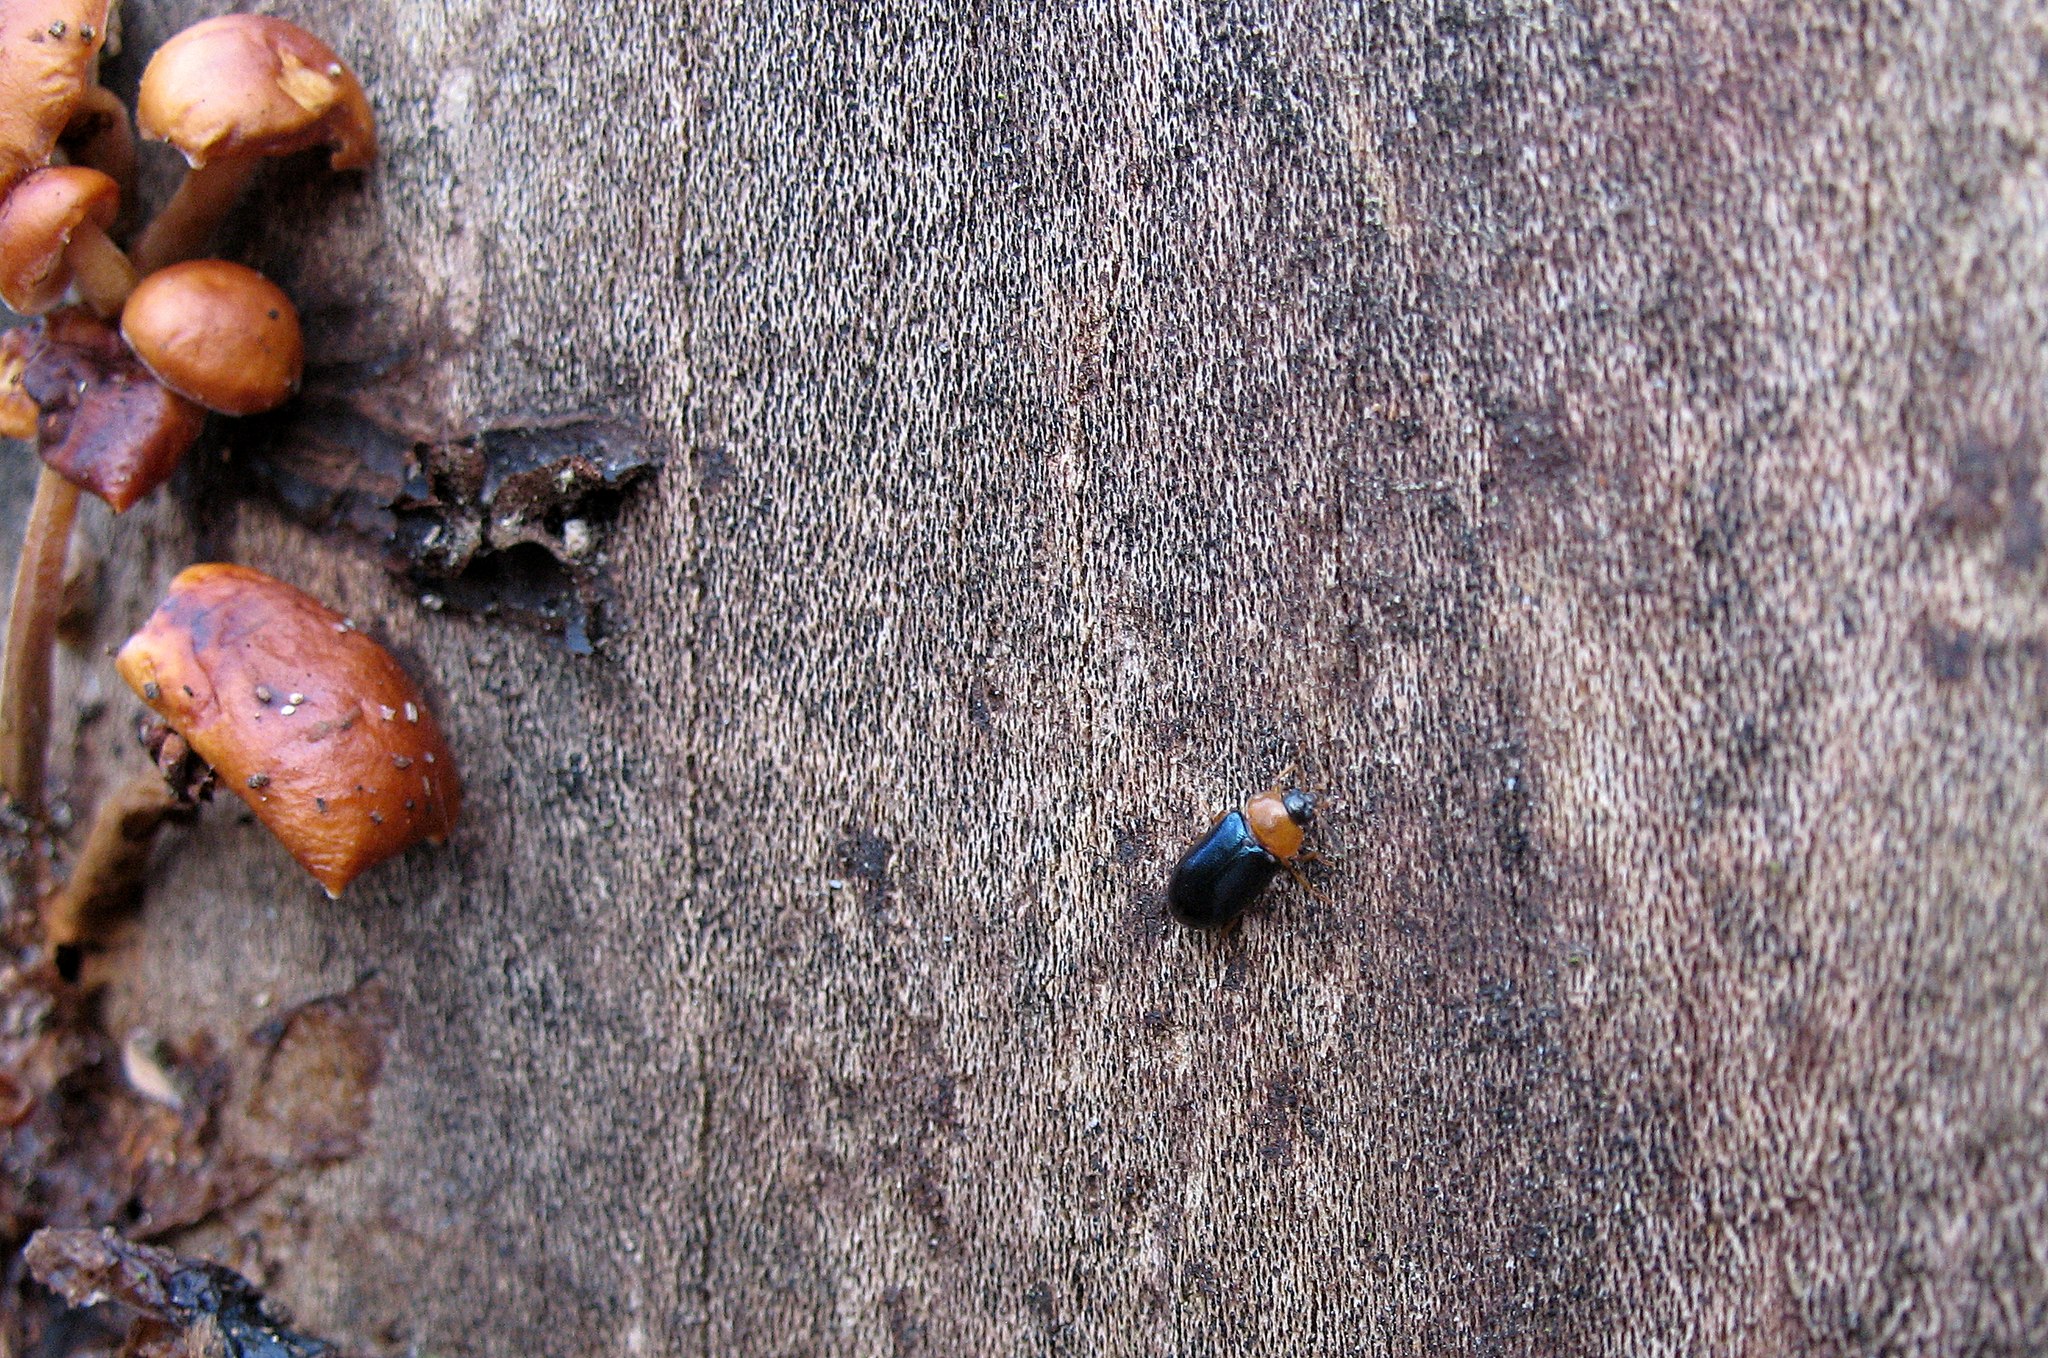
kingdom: Animalia
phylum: Arthropoda
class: Insecta
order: Coleoptera
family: Tetratomidae
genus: Tetratoma
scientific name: Tetratoma fungorum
